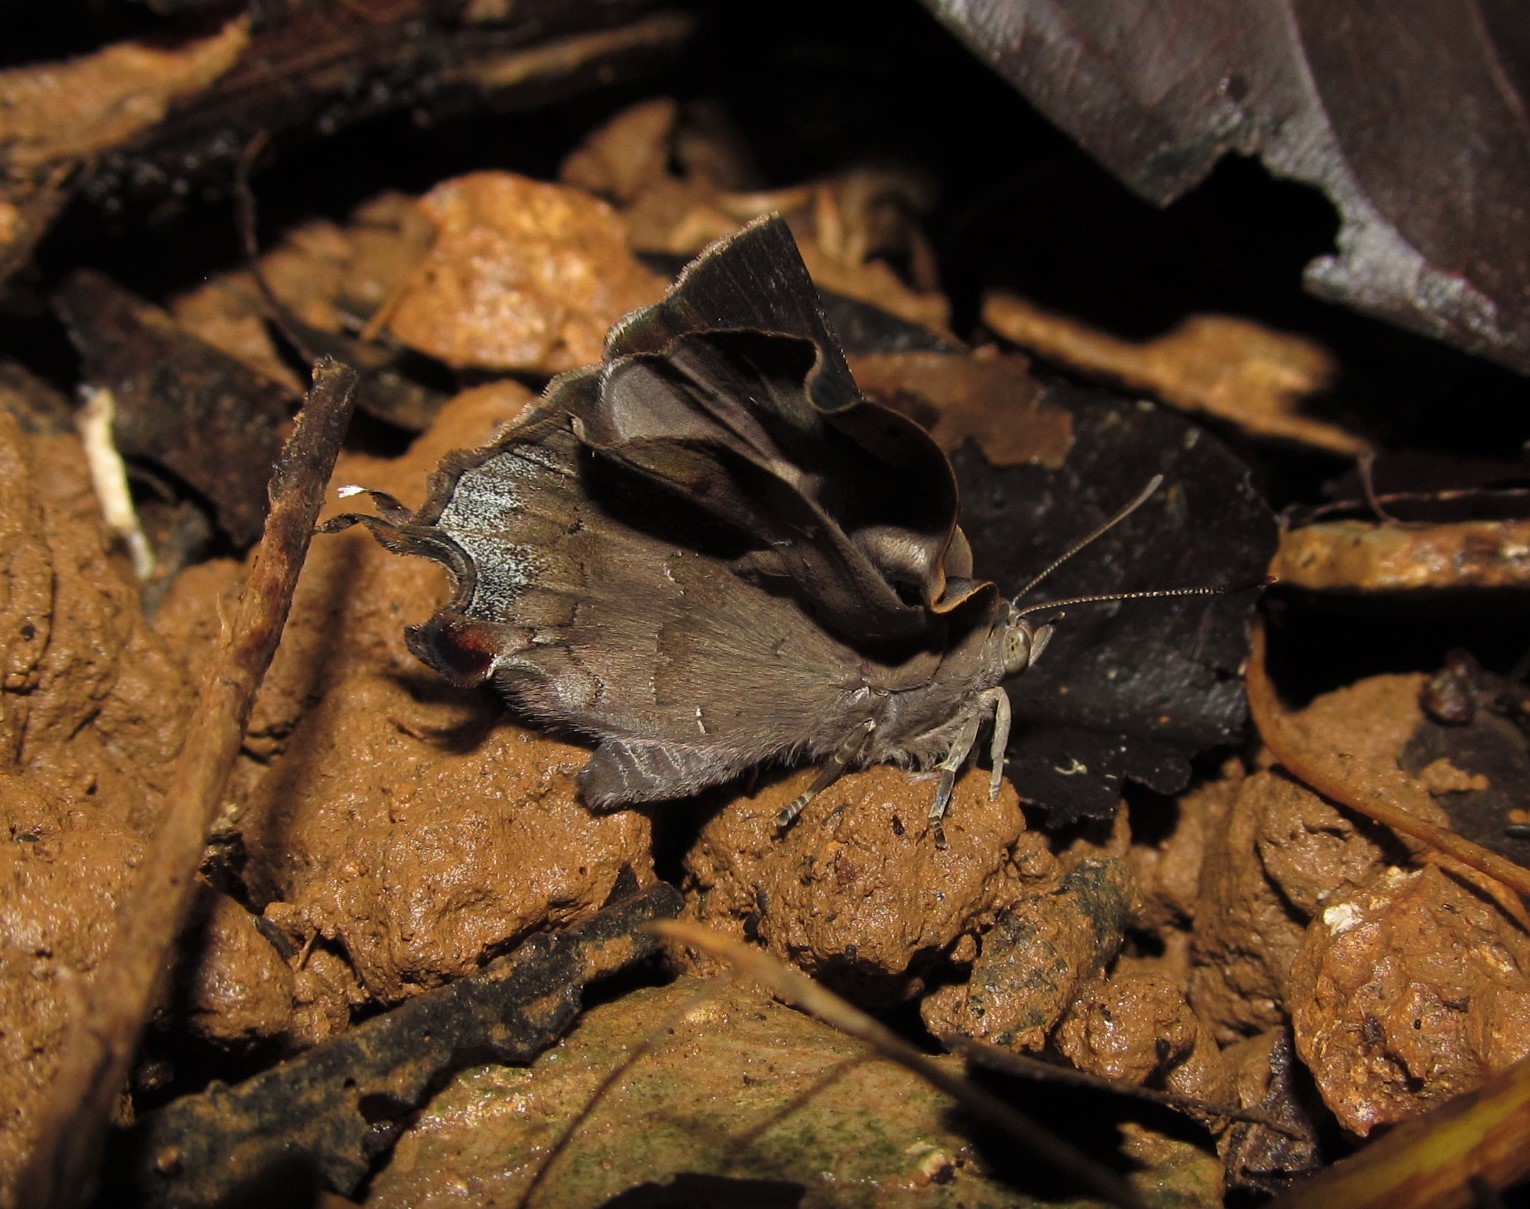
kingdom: Animalia
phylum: Arthropoda
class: Insecta
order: Lepidoptera
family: Lycaenidae
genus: Surendra
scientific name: Surendra quercetorum
